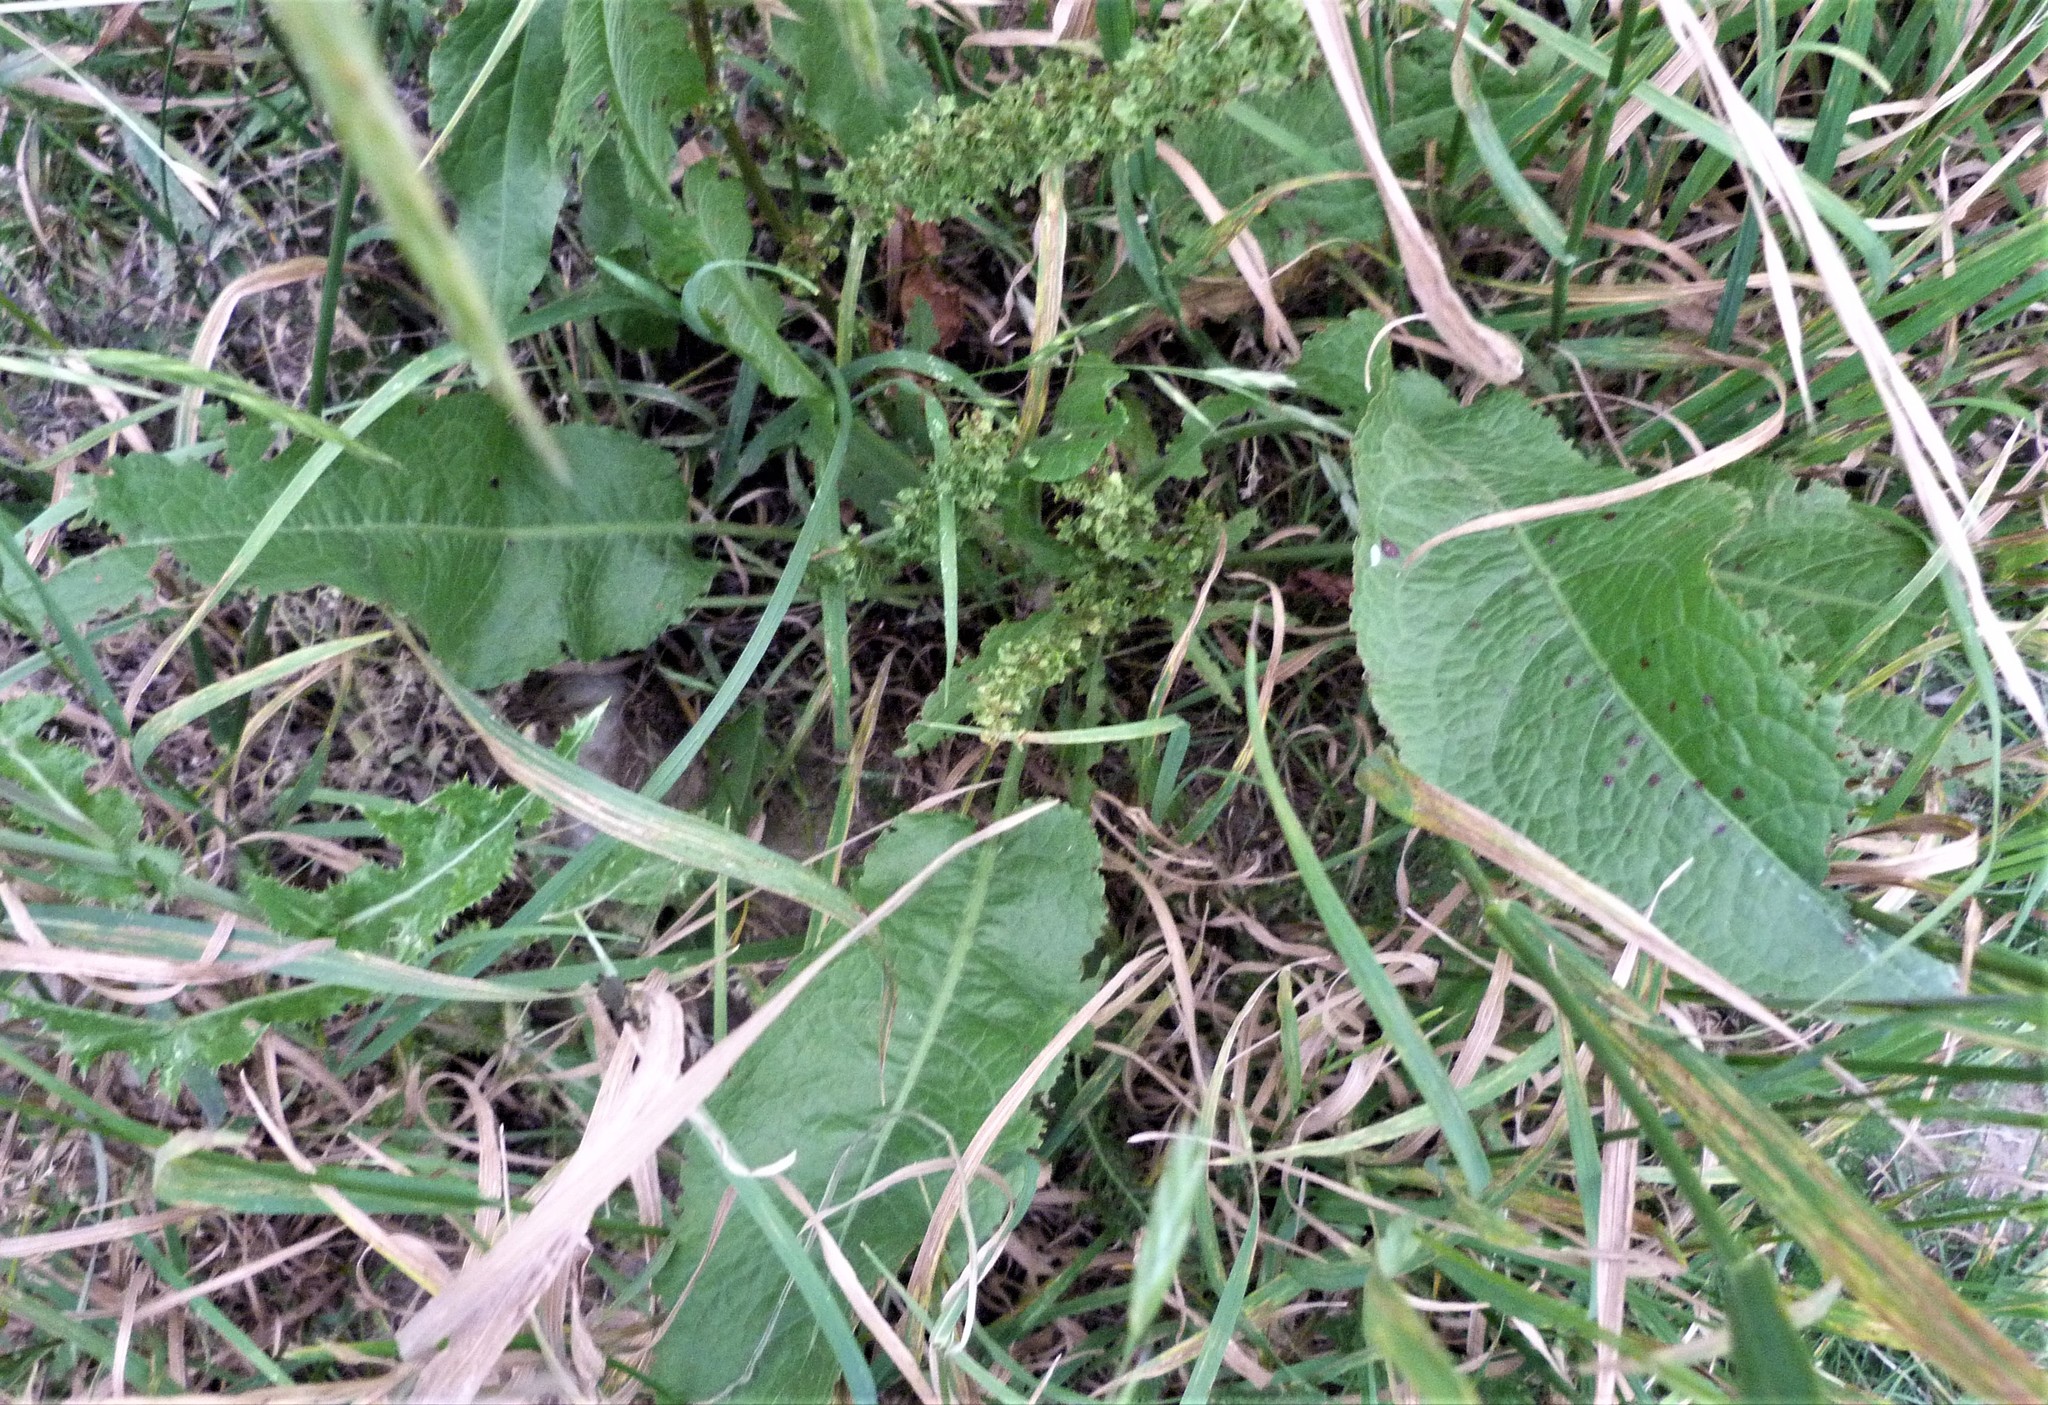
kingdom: Plantae
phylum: Tracheophyta
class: Magnoliopsida
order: Caryophyllales
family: Polygonaceae
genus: Rumex
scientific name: Rumex obtusifolius
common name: Bitter dock
